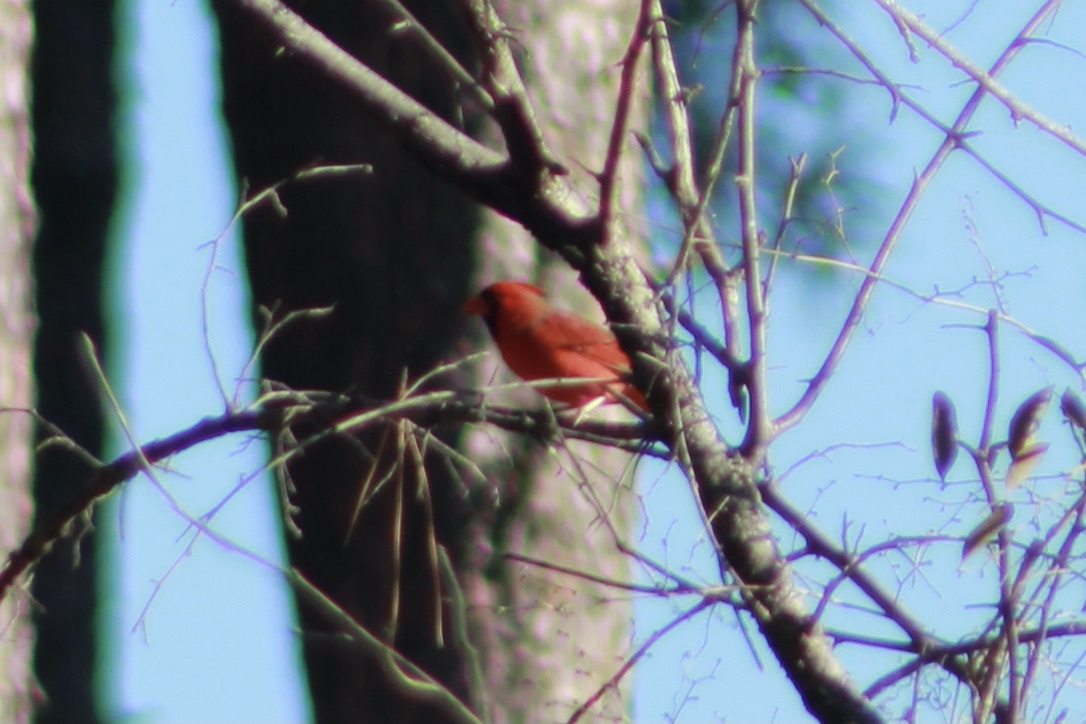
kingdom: Animalia
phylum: Chordata
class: Aves
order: Passeriformes
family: Cardinalidae
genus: Cardinalis
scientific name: Cardinalis cardinalis
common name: Northern cardinal
